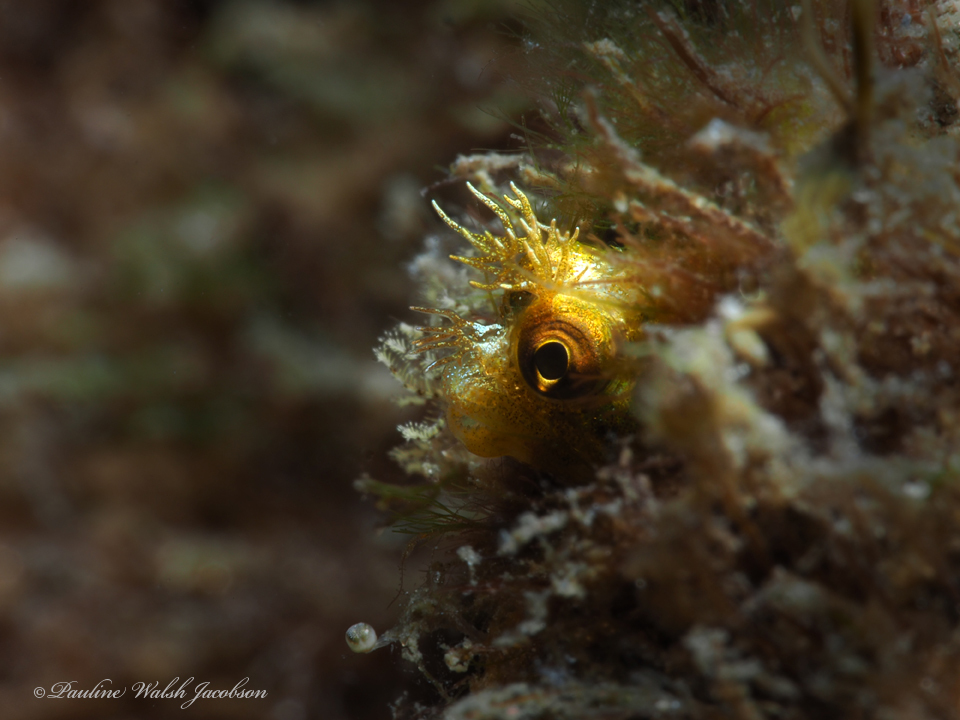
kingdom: Animalia
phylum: Chordata
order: Perciformes
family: Chaenopsidae
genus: Acanthemblemaria
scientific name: Acanthemblemaria aspera
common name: Roughhead blenny
